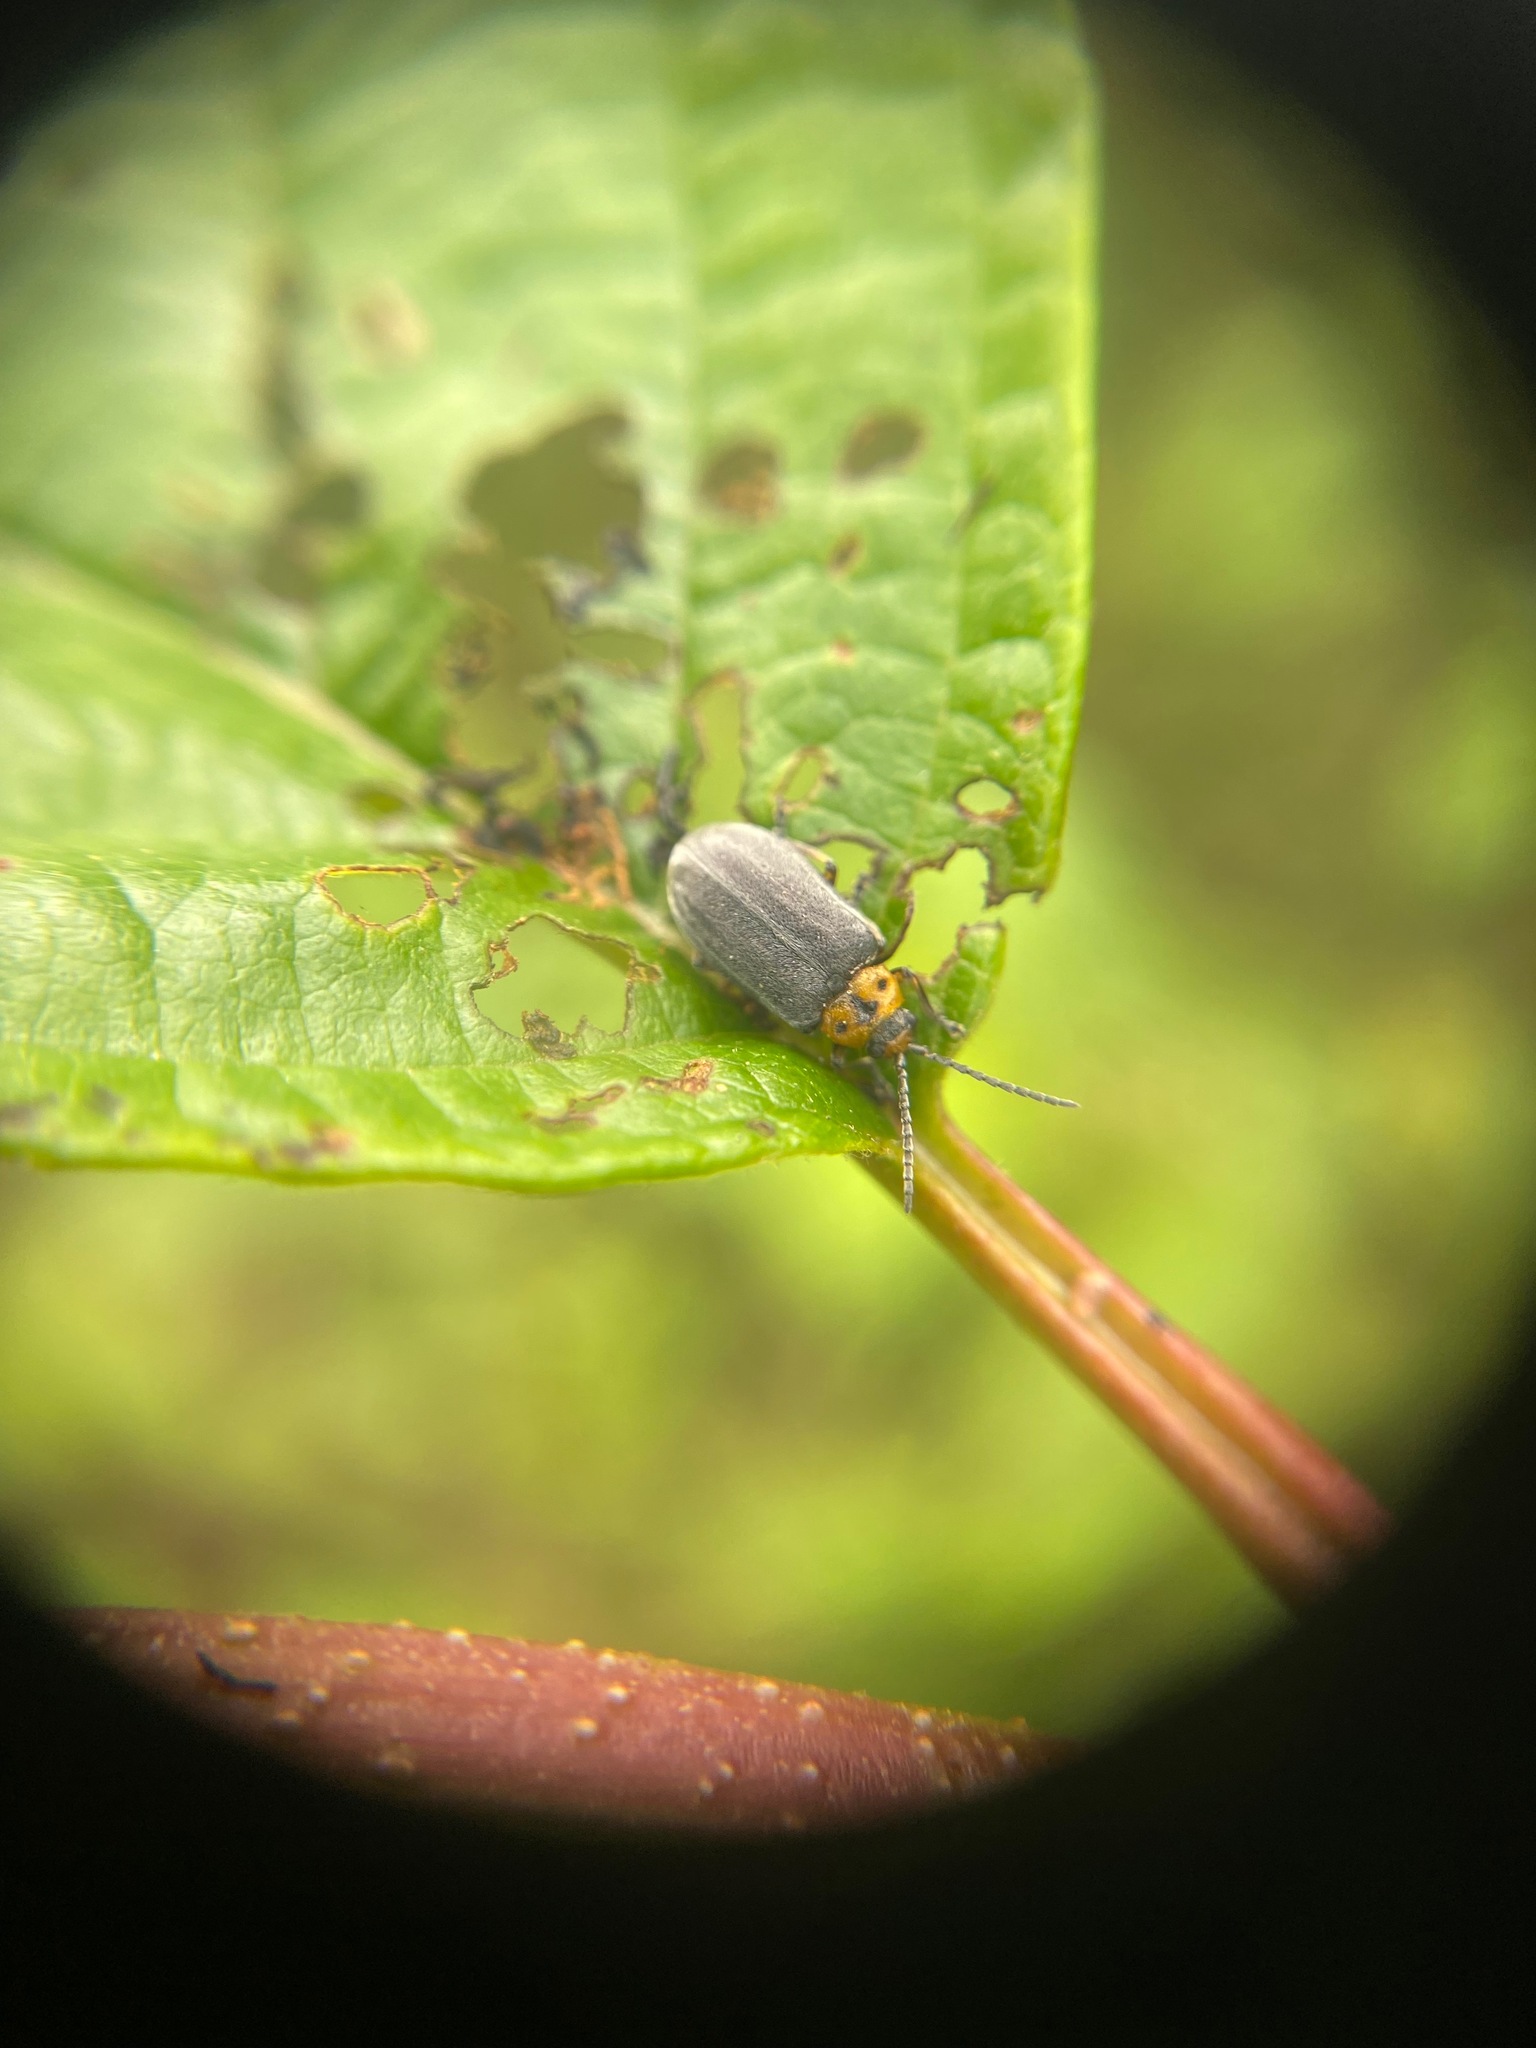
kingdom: Animalia
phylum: Arthropoda
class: Insecta
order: Coleoptera
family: Chrysomelidae
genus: Tricholochmaea
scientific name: Tricholochmaea punctipennis
